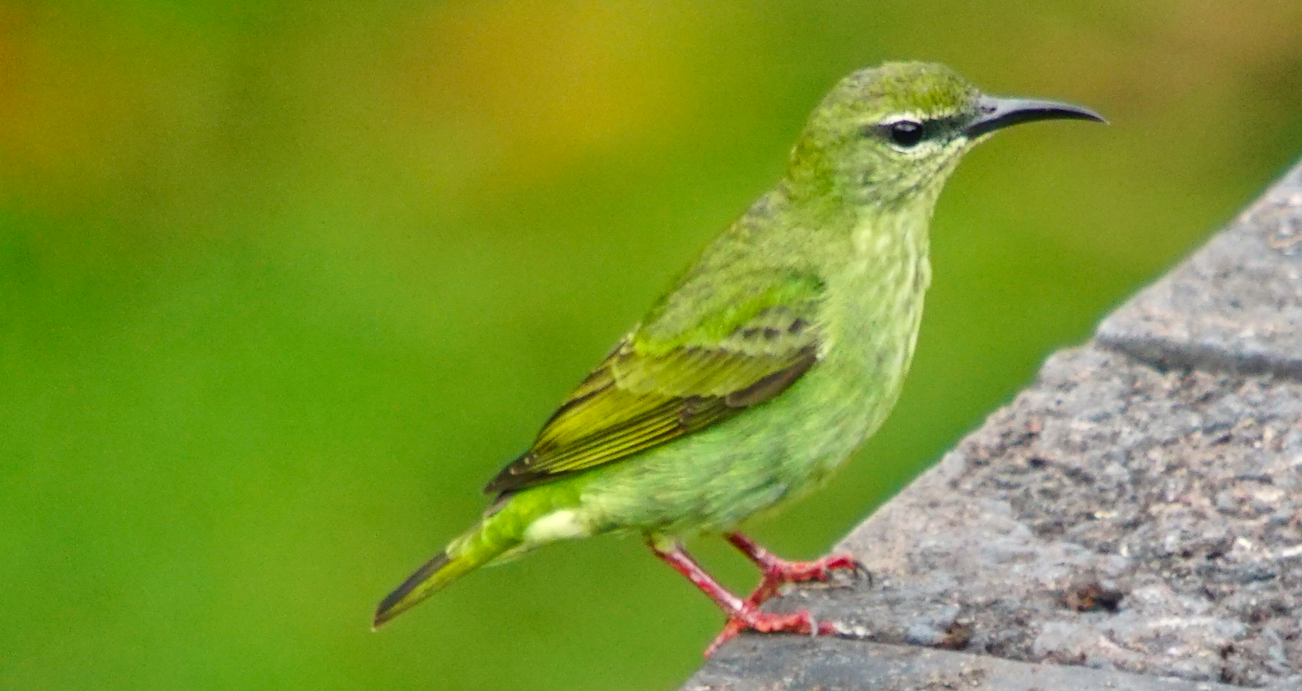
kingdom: Animalia
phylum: Chordata
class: Aves
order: Passeriformes
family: Thraupidae
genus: Cyanerpes
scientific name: Cyanerpes cyaneus
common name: Red-legged honeycreeper
